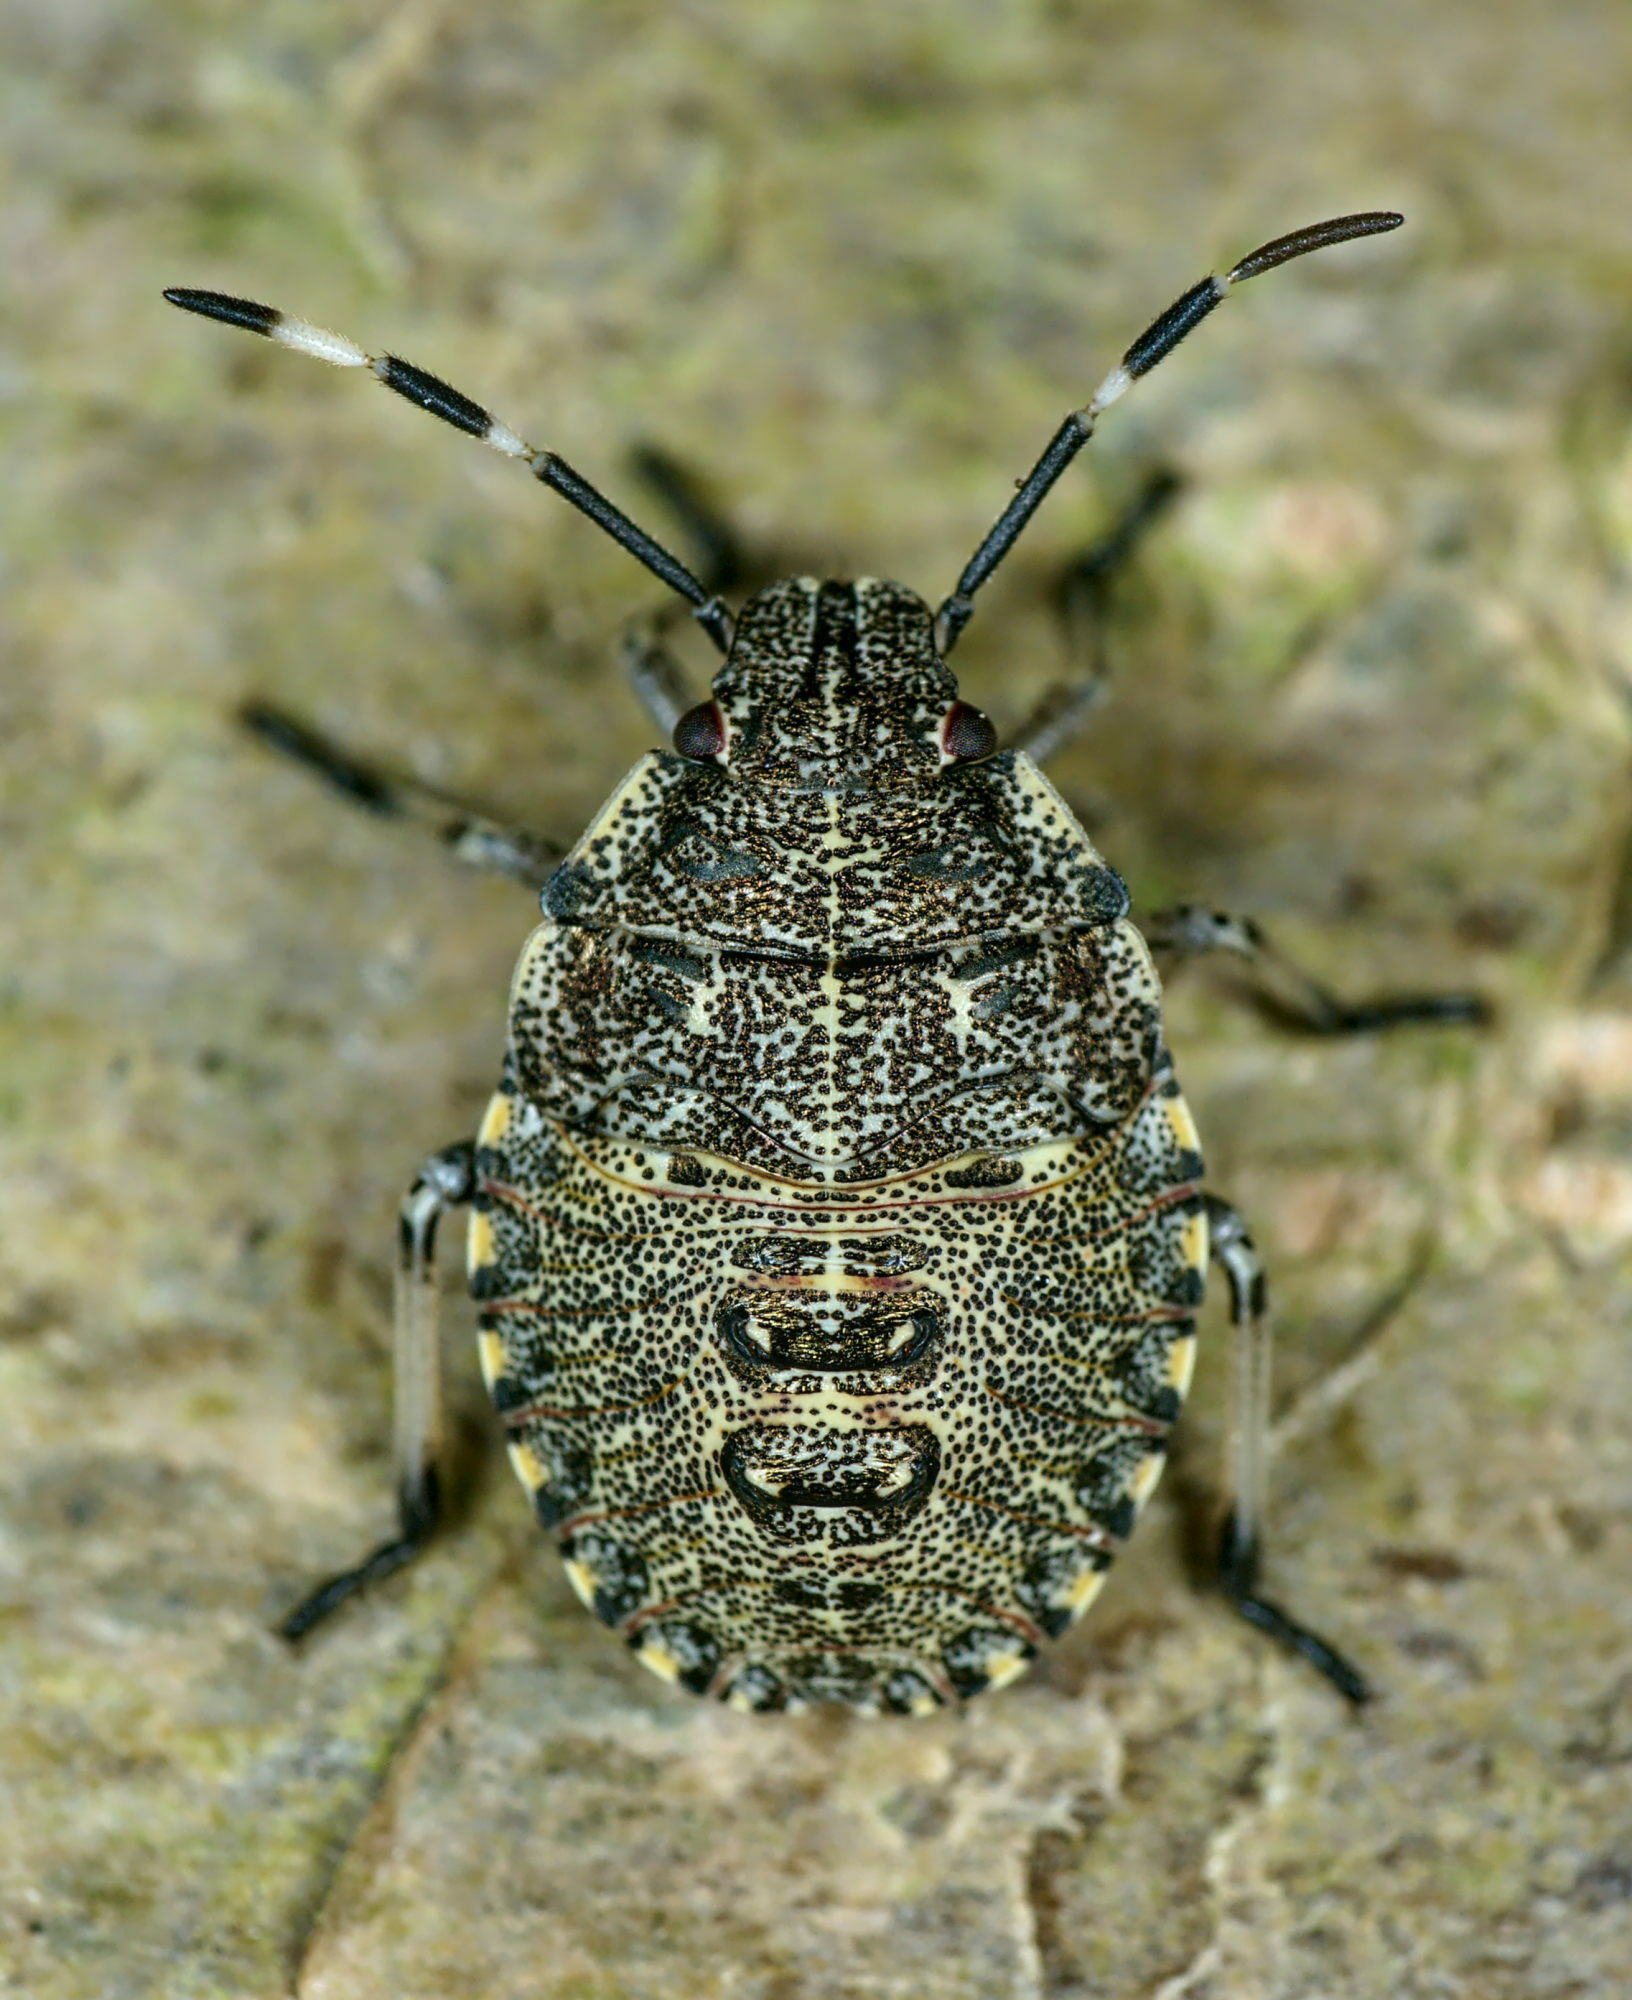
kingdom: Animalia
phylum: Arthropoda
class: Insecta
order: Hemiptera
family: Pentatomidae
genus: Rhaphigaster
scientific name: Rhaphigaster nebulosa
